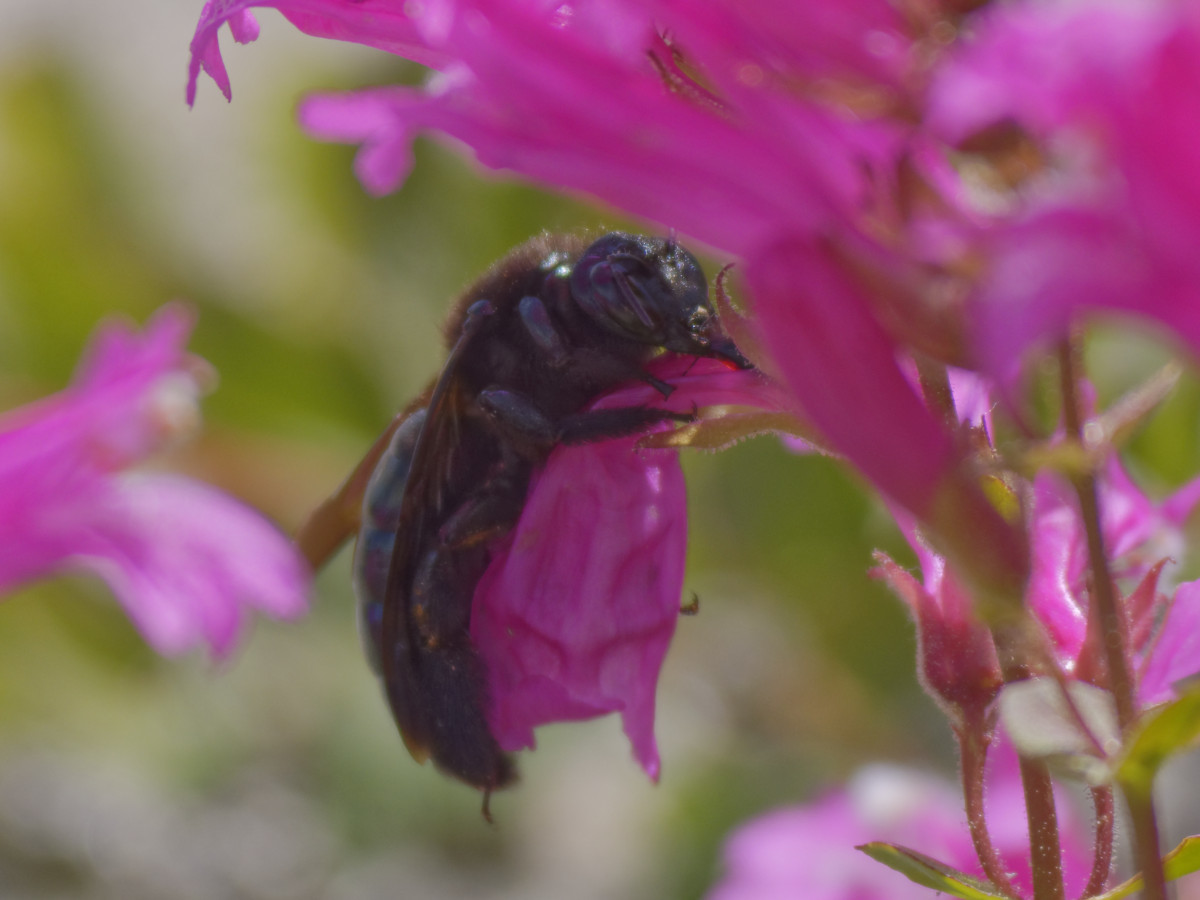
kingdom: Animalia
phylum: Arthropoda
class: Insecta
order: Hymenoptera
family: Apidae
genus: Xylocopa
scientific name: Xylocopa californica
